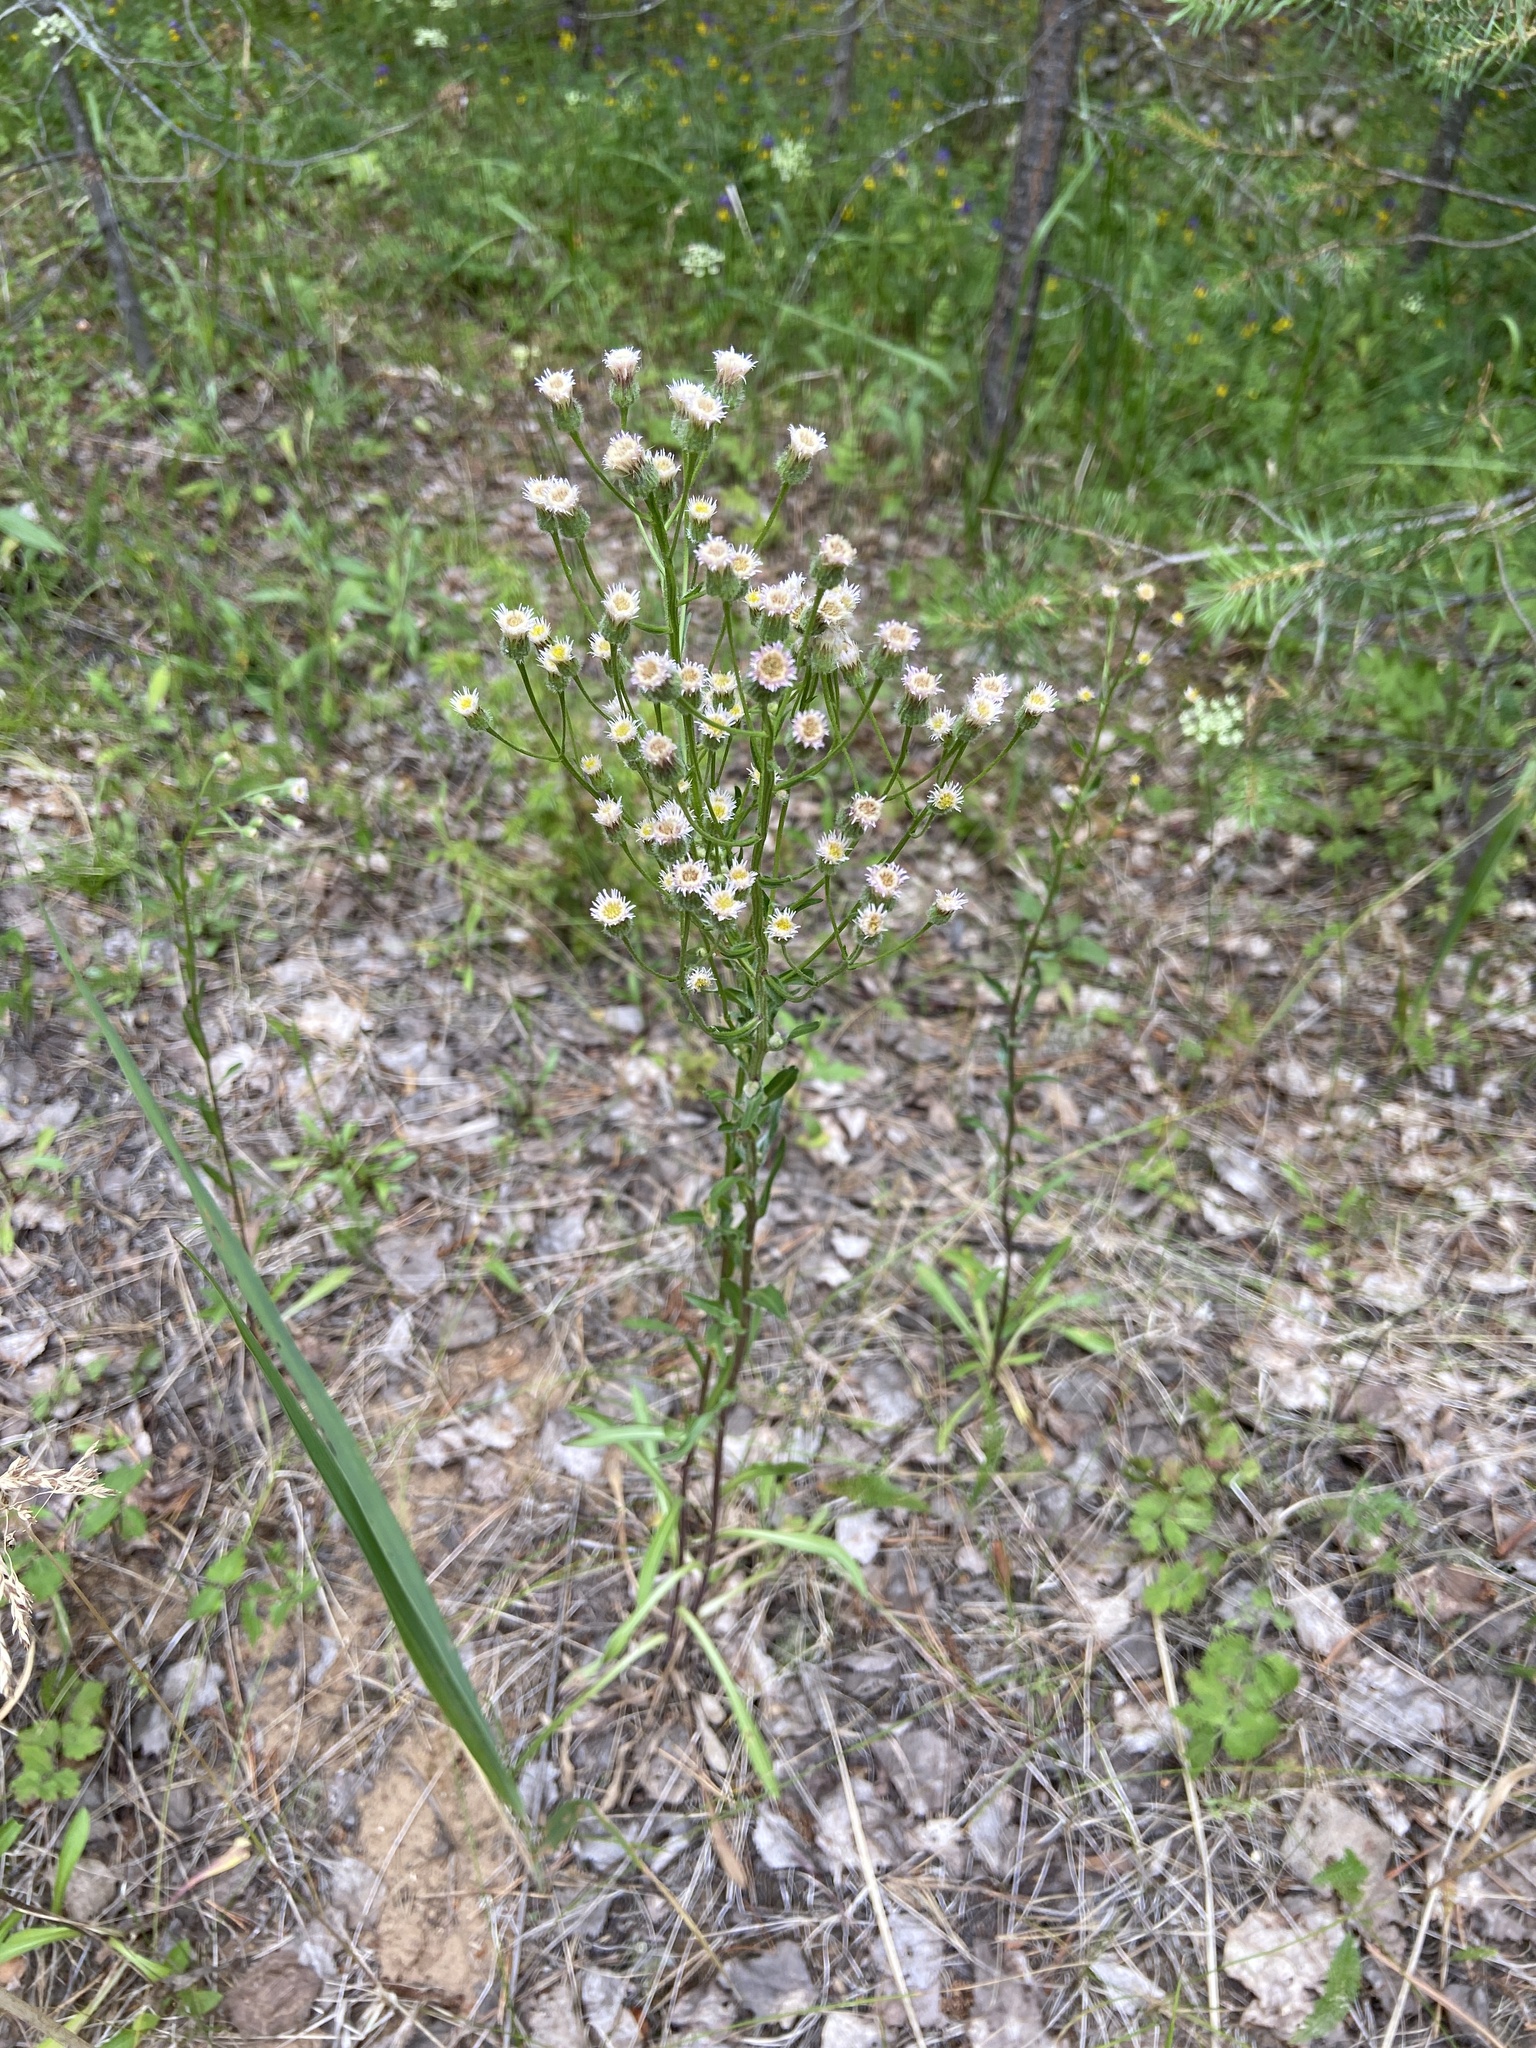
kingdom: Plantae
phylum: Tracheophyta
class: Magnoliopsida
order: Asterales
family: Asteraceae
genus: Erigeron
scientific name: Erigeron acris
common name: Blue fleabane
